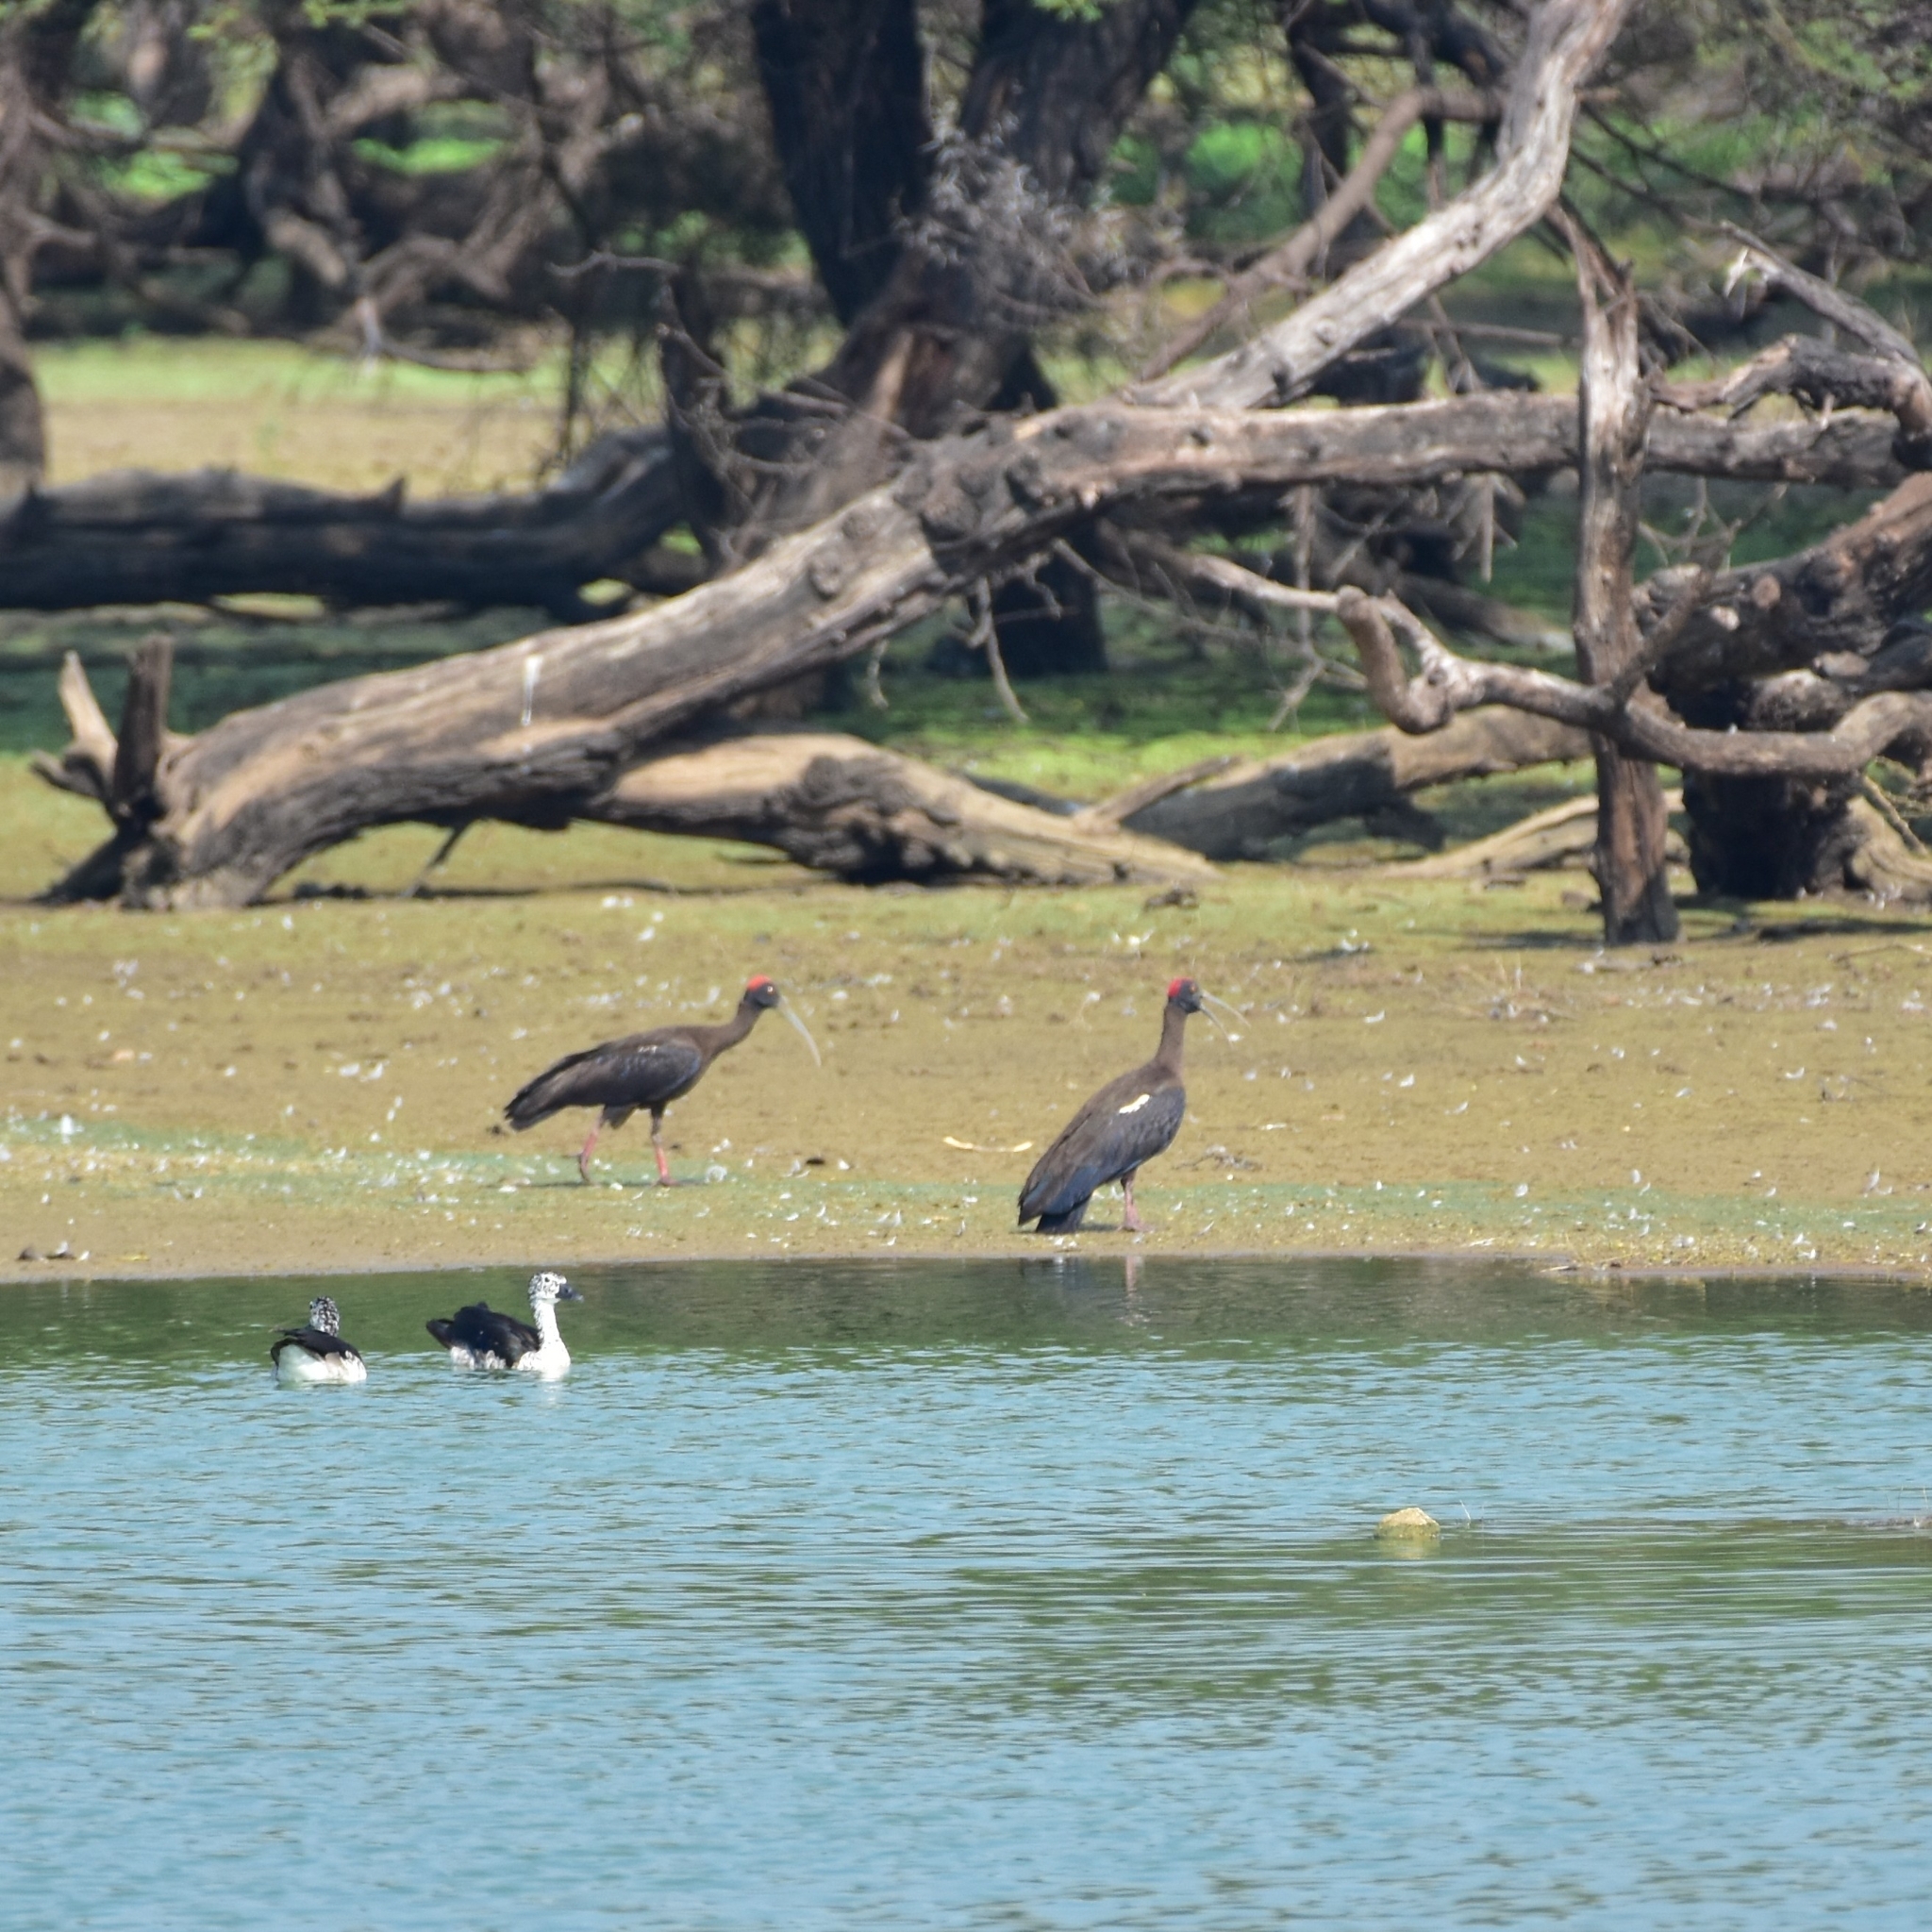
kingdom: Animalia
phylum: Chordata
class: Aves
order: Pelecaniformes
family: Threskiornithidae
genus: Pseudibis
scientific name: Pseudibis papillosa
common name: Red-naped ibis
